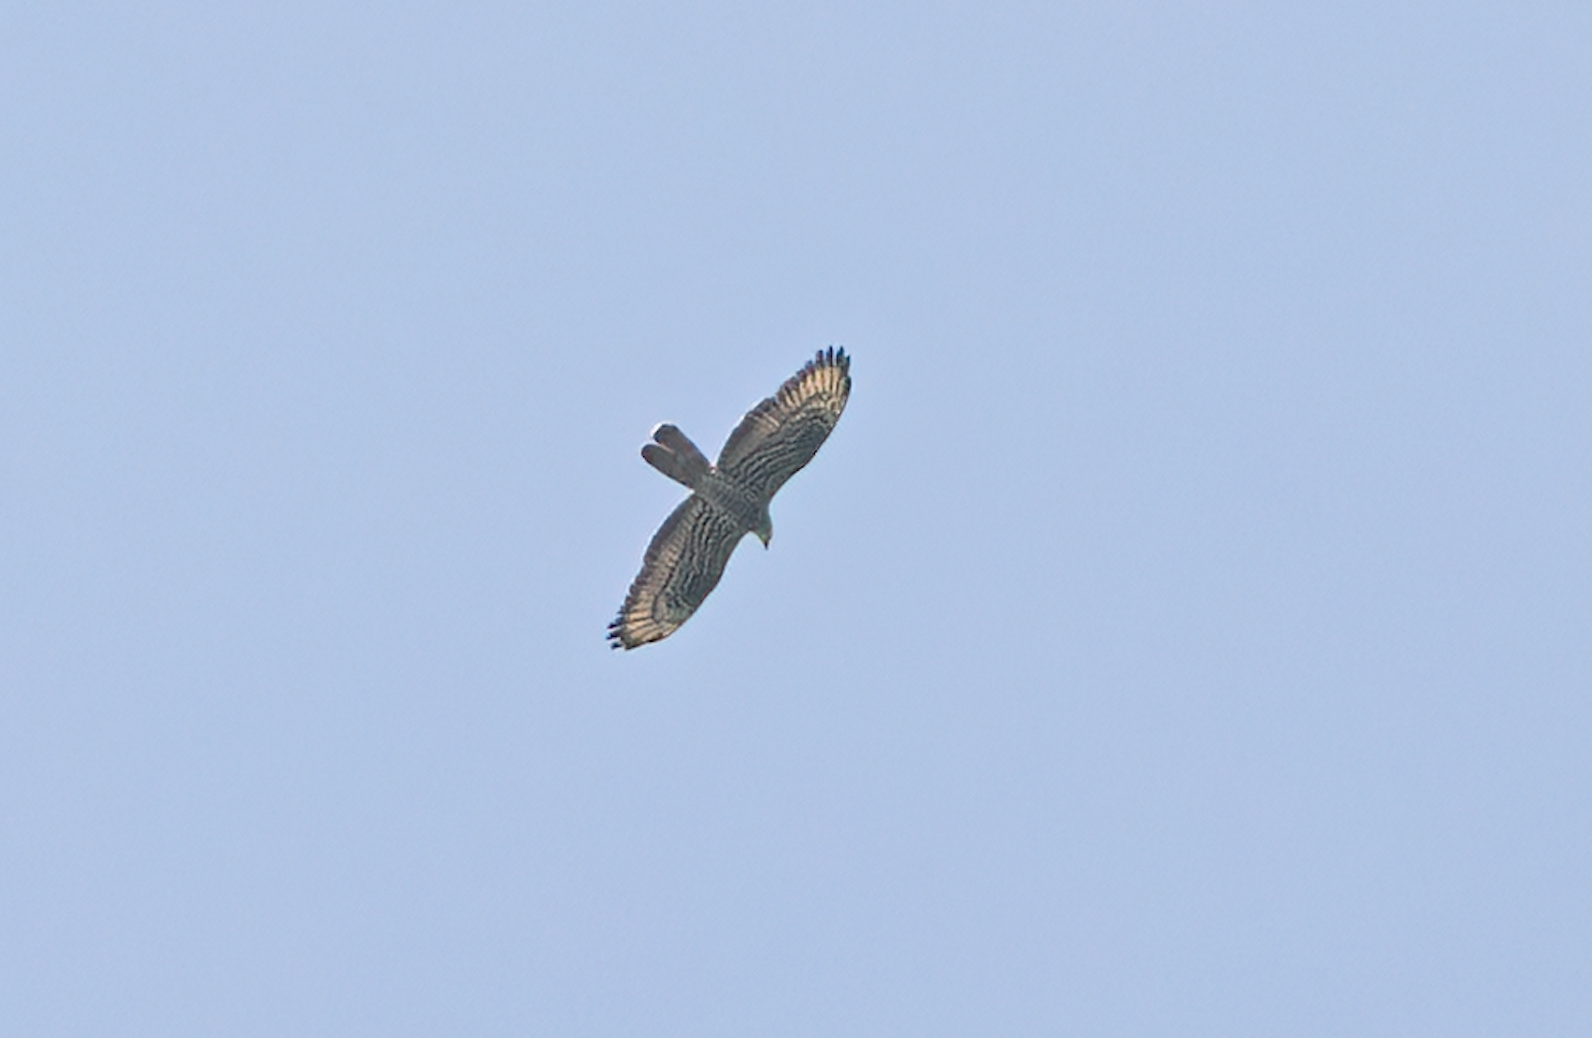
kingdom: Animalia
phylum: Chordata
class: Aves
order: Accipitriformes
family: Accipitridae
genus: Pernis
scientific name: Pernis apivorus
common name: European honey buzzard
